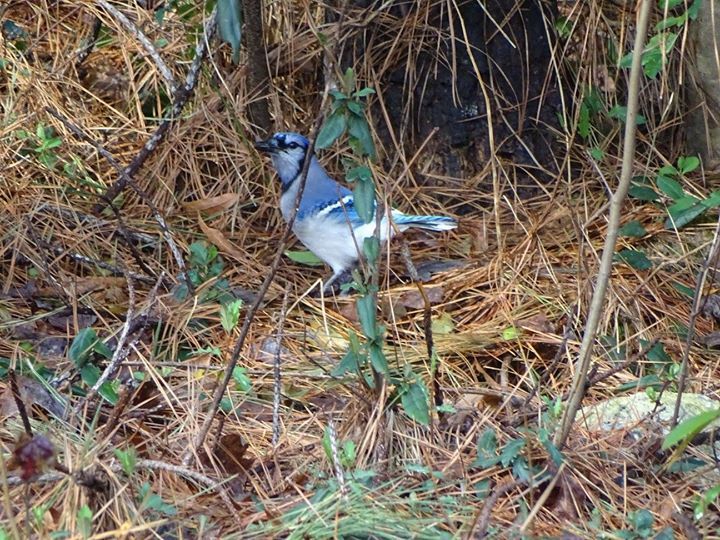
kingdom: Animalia
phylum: Chordata
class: Aves
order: Passeriformes
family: Corvidae
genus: Cyanocitta
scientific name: Cyanocitta cristata
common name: Blue jay
